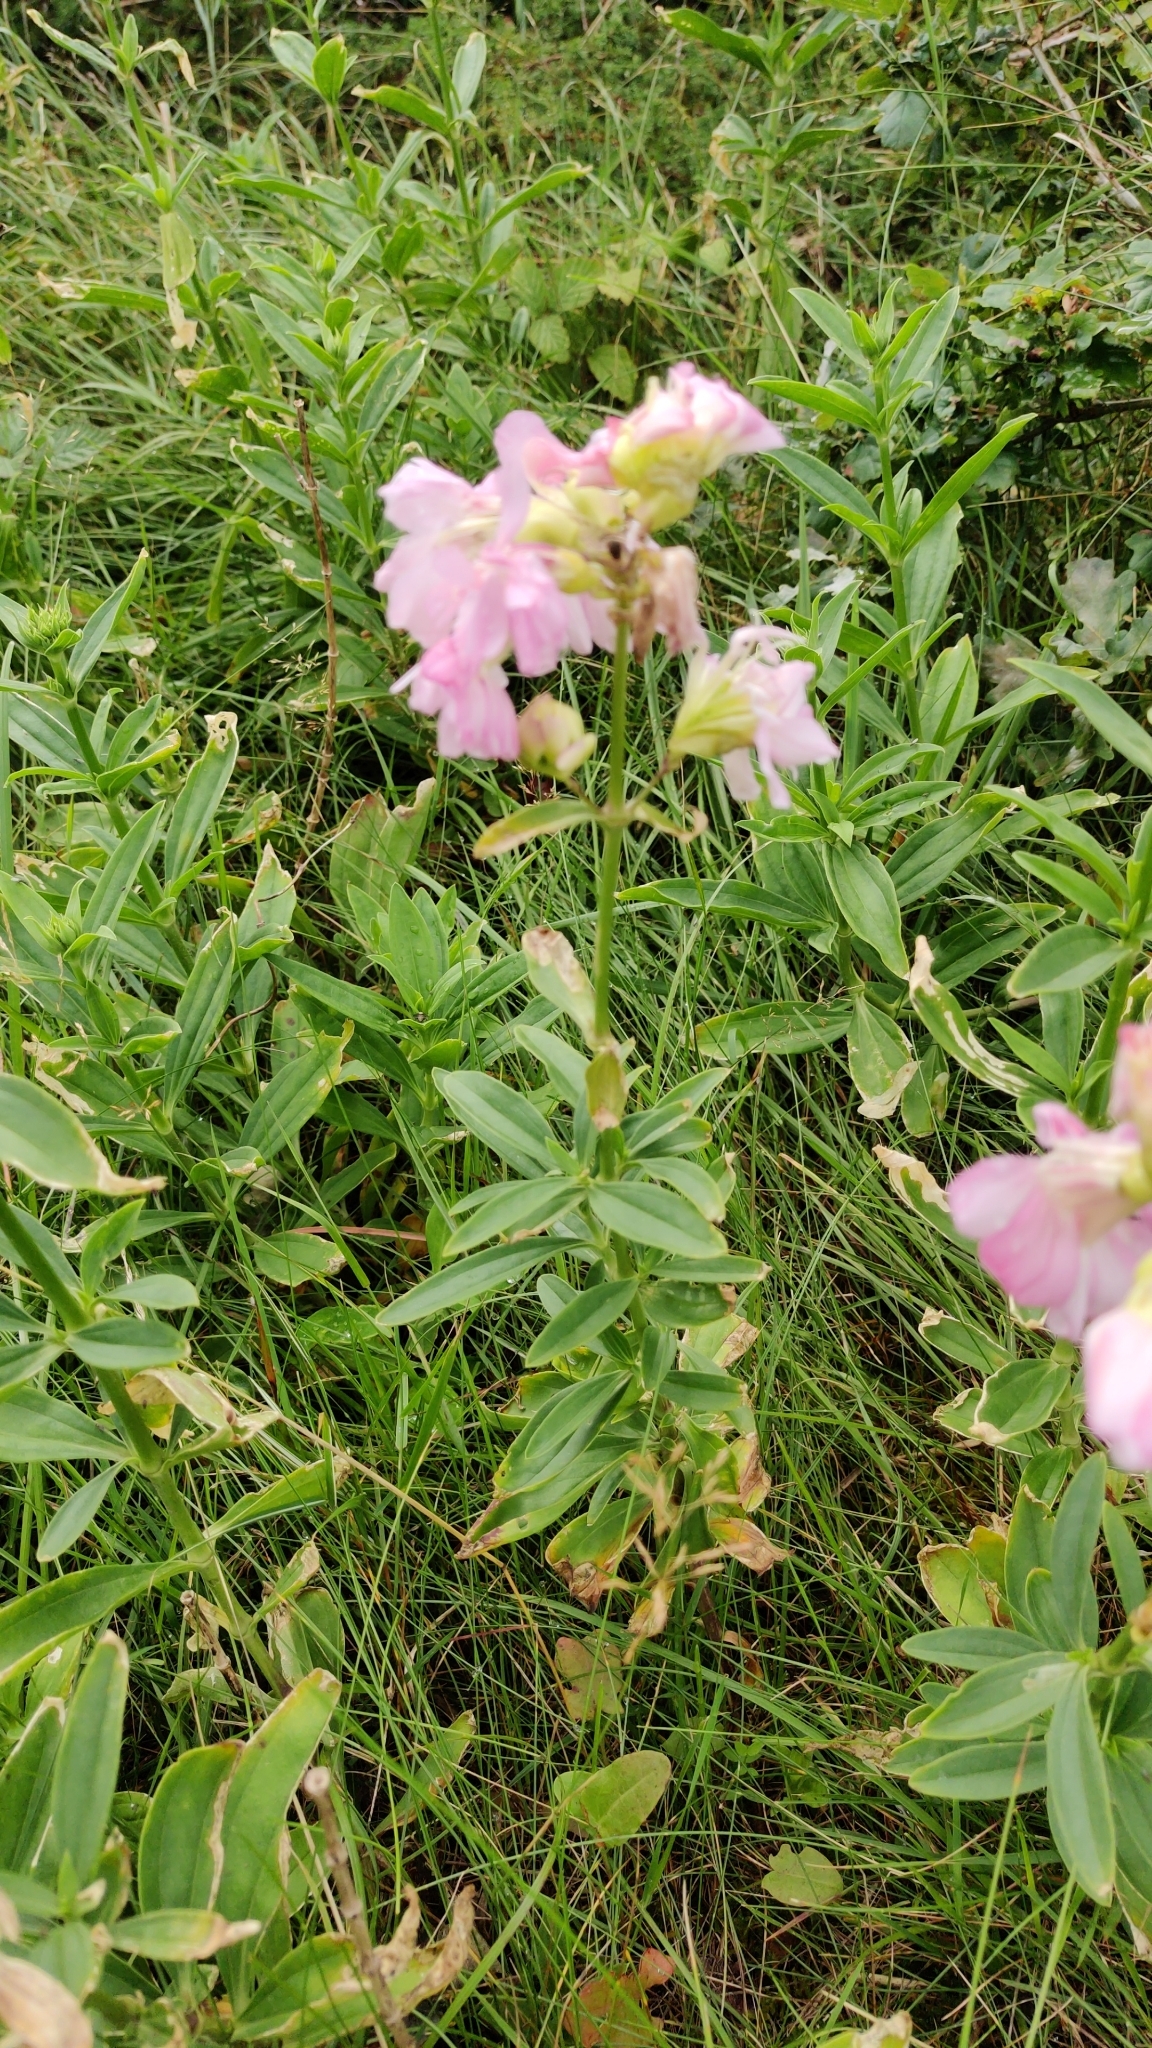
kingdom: Plantae
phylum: Tracheophyta
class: Magnoliopsida
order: Caryophyllales
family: Caryophyllaceae
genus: Saponaria
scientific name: Saponaria officinalis
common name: Soapwort
